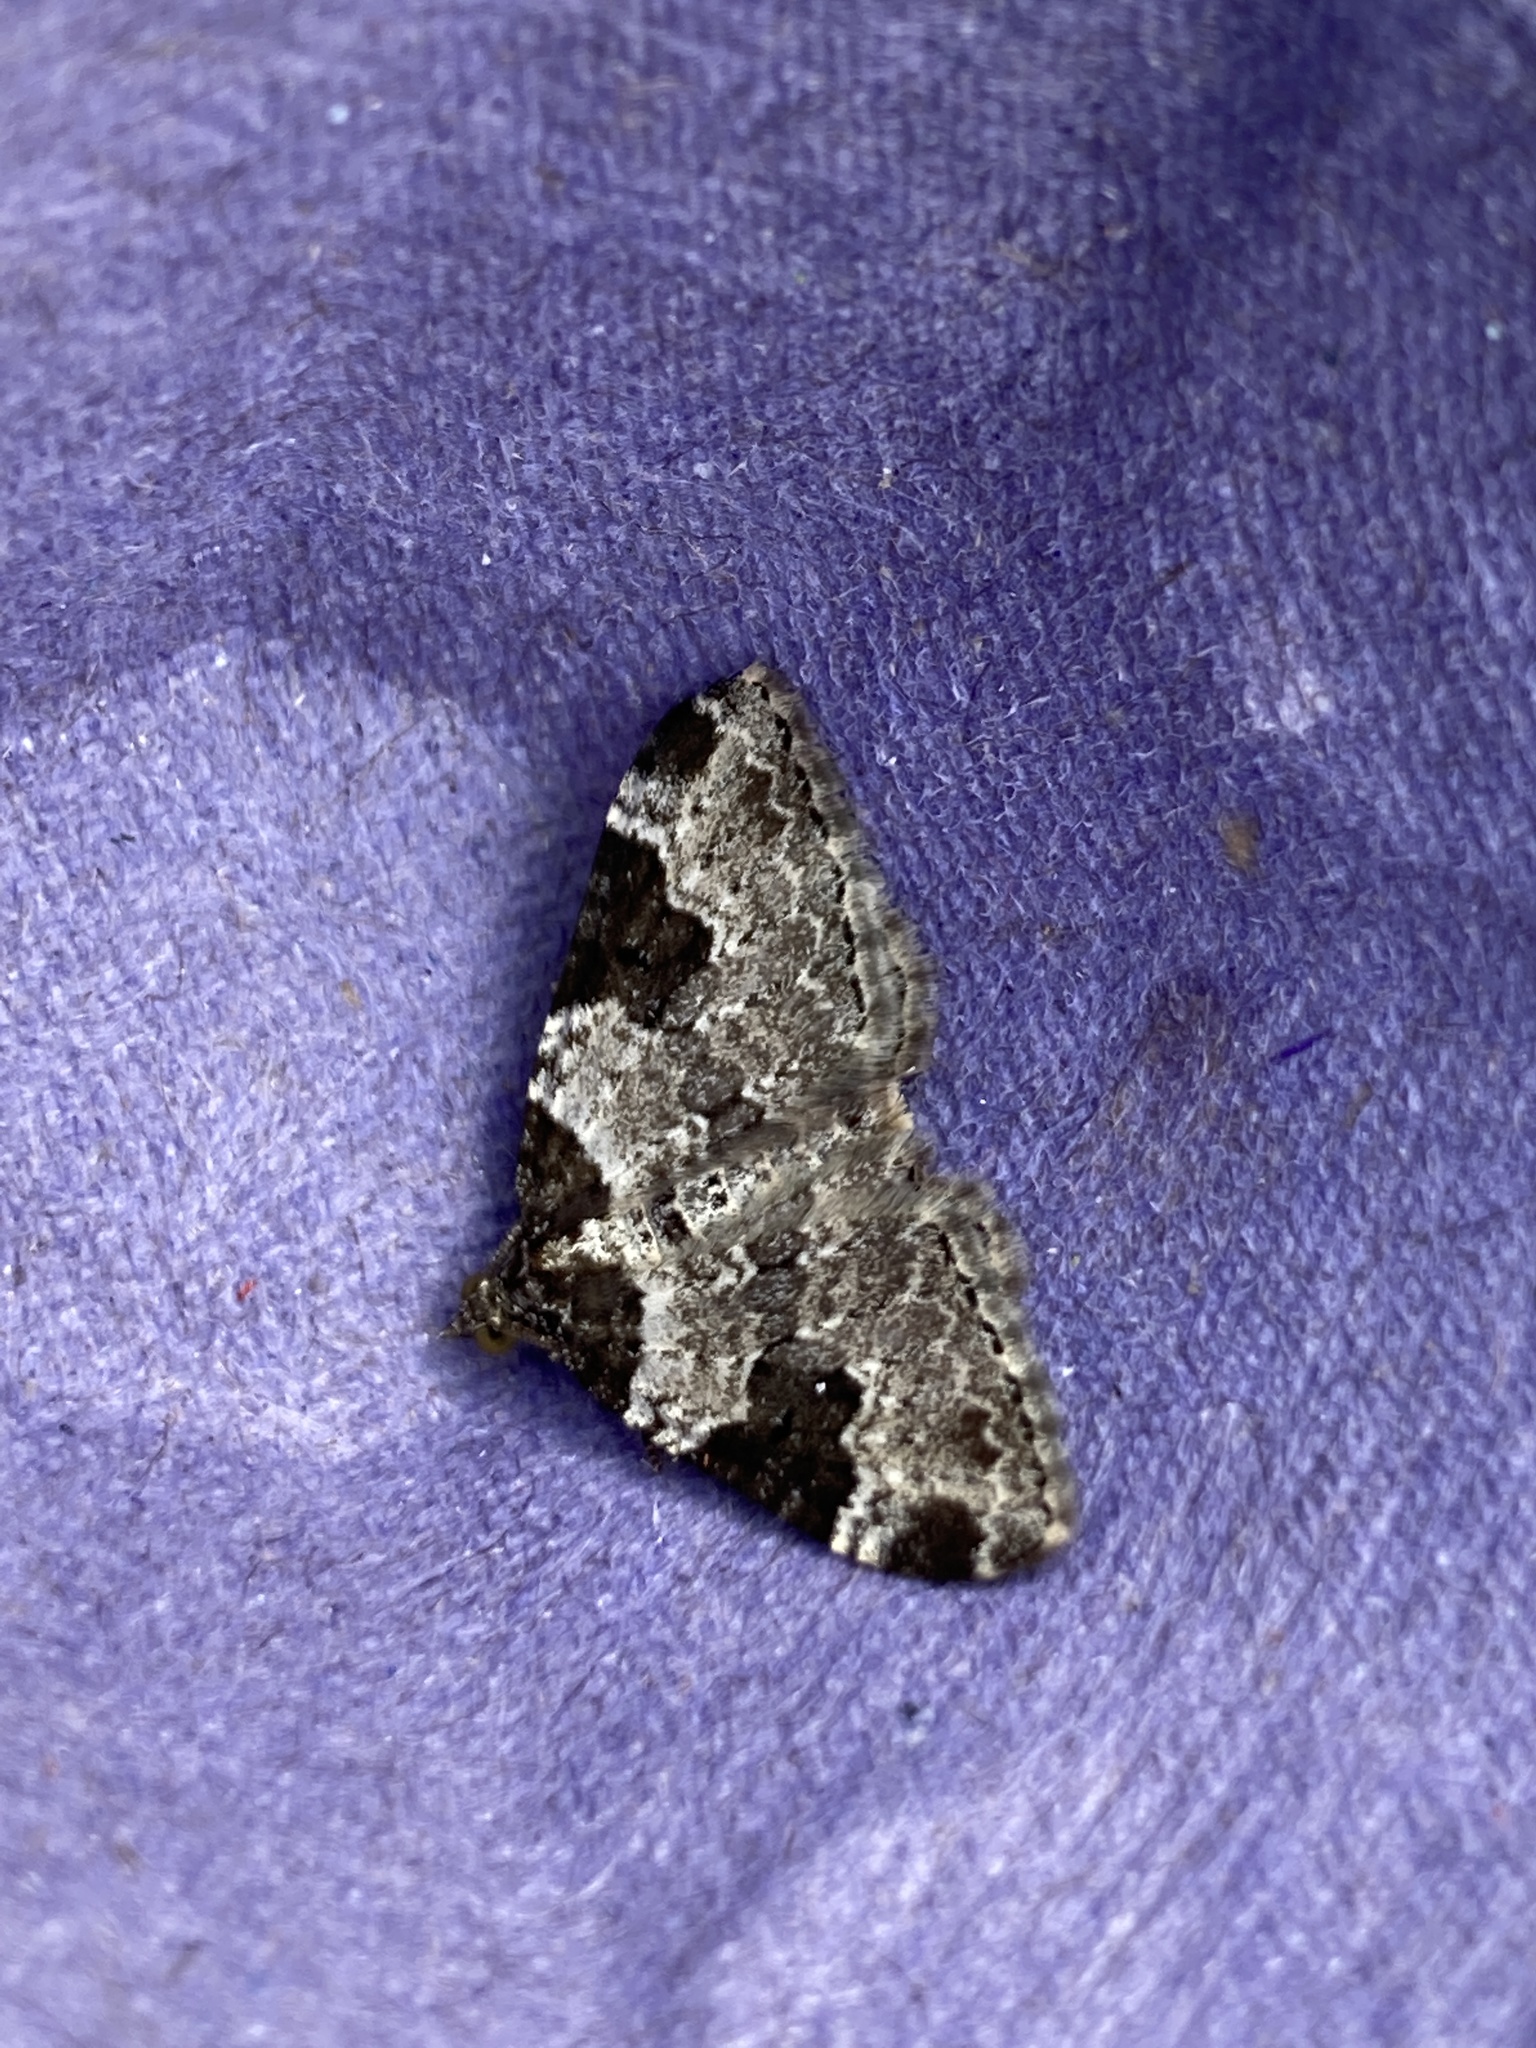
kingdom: Animalia
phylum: Arthropoda
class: Insecta
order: Lepidoptera
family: Geometridae
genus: Xanthorhoe
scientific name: Xanthorhoe fluctuata
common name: Garden carpet
